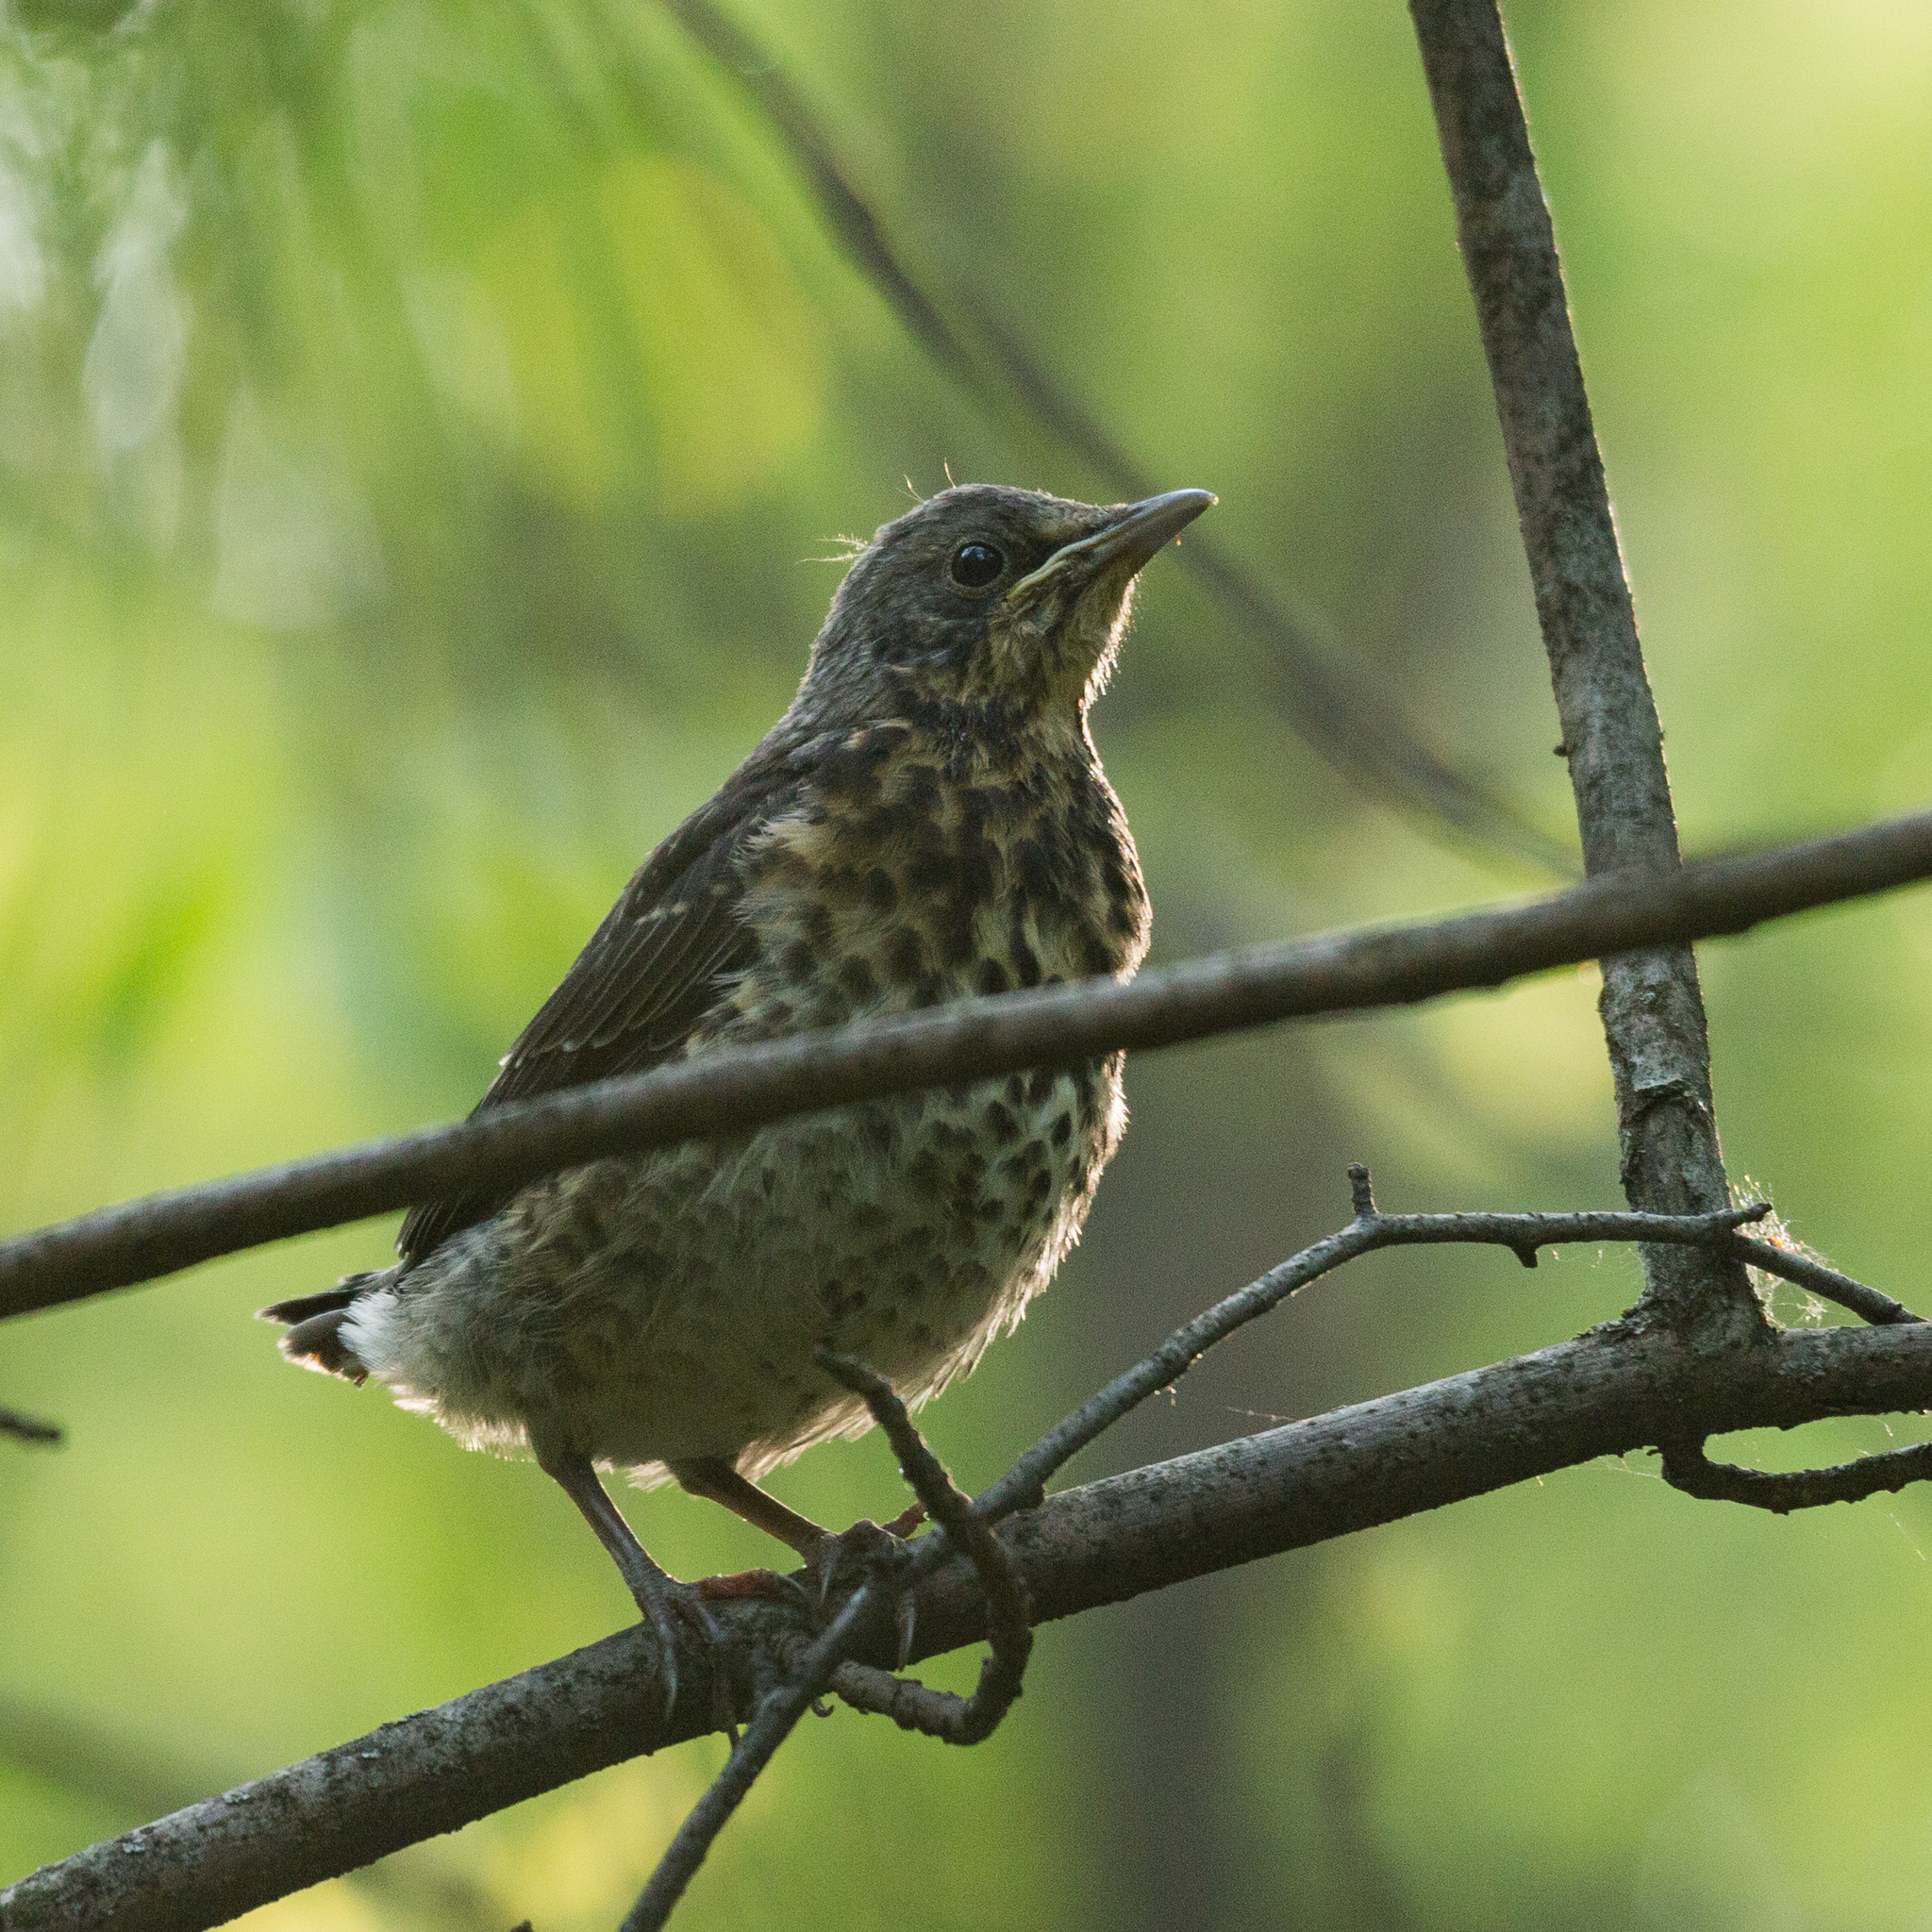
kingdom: Animalia
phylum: Chordata
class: Aves
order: Passeriformes
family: Turdidae
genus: Turdus
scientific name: Turdus pilaris
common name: Fieldfare
